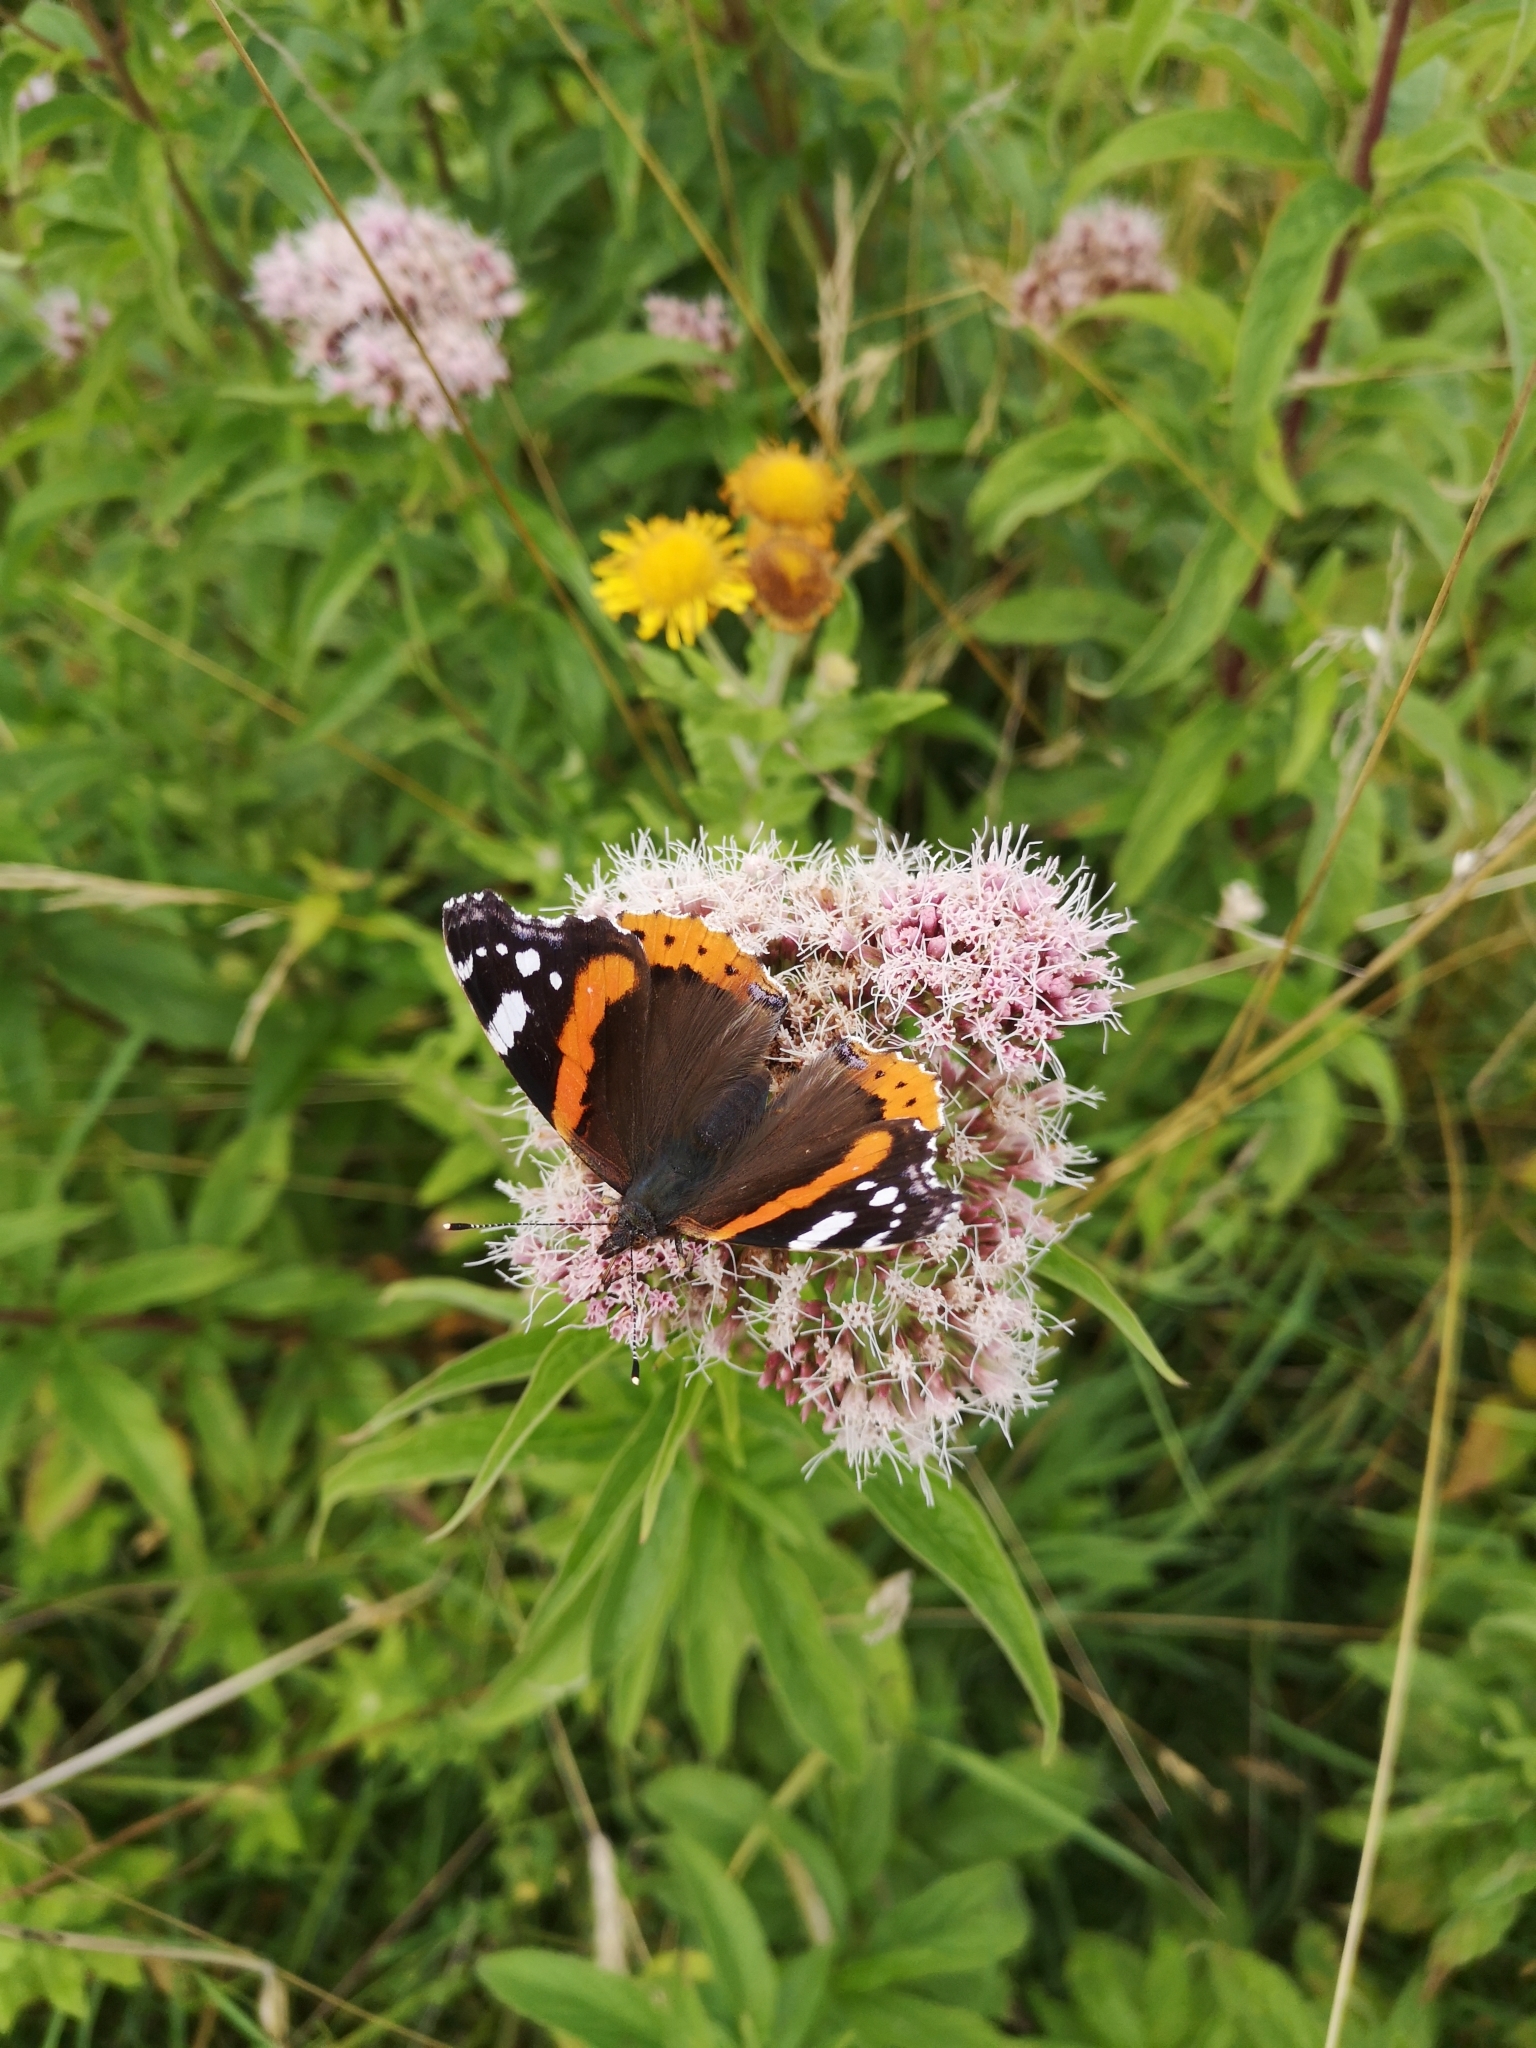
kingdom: Animalia
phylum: Arthropoda
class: Insecta
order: Lepidoptera
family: Nymphalidae
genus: Vanessa
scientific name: Vanessa atalanta
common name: Red admiral
